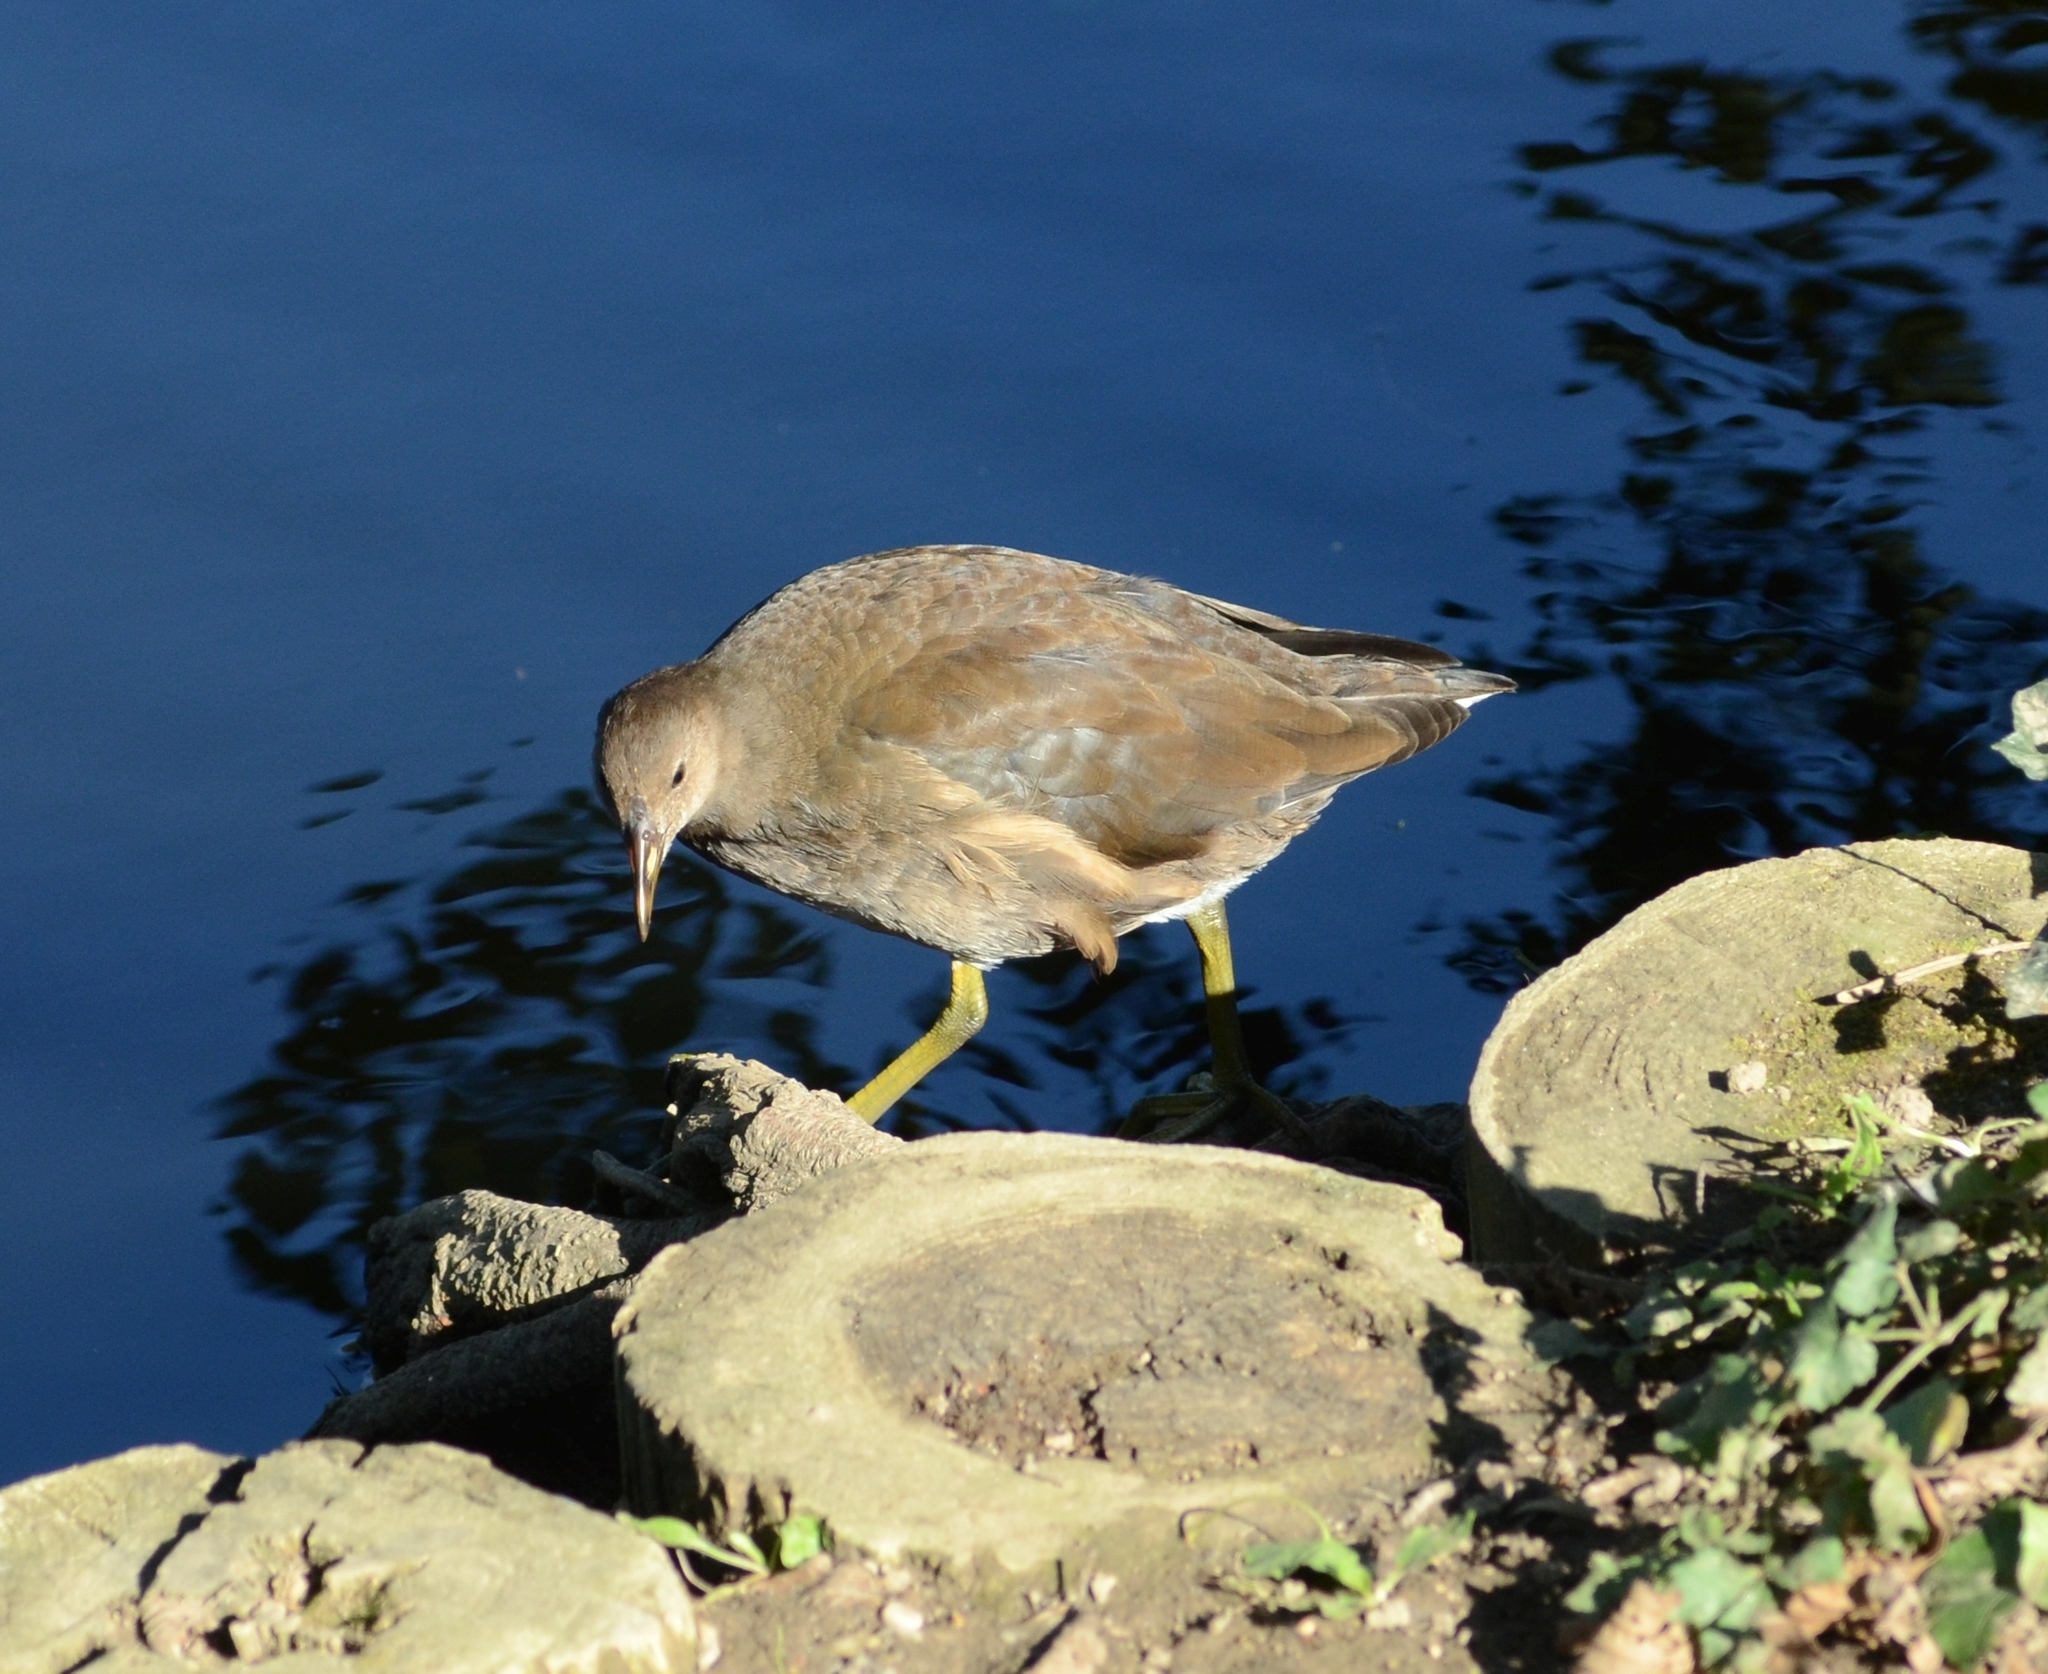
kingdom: Animalia
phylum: Chordata
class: Aves
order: Gruiformes
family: Rallidae
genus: Gallinula
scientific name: Gallinula chloropus
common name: Common moorhen
